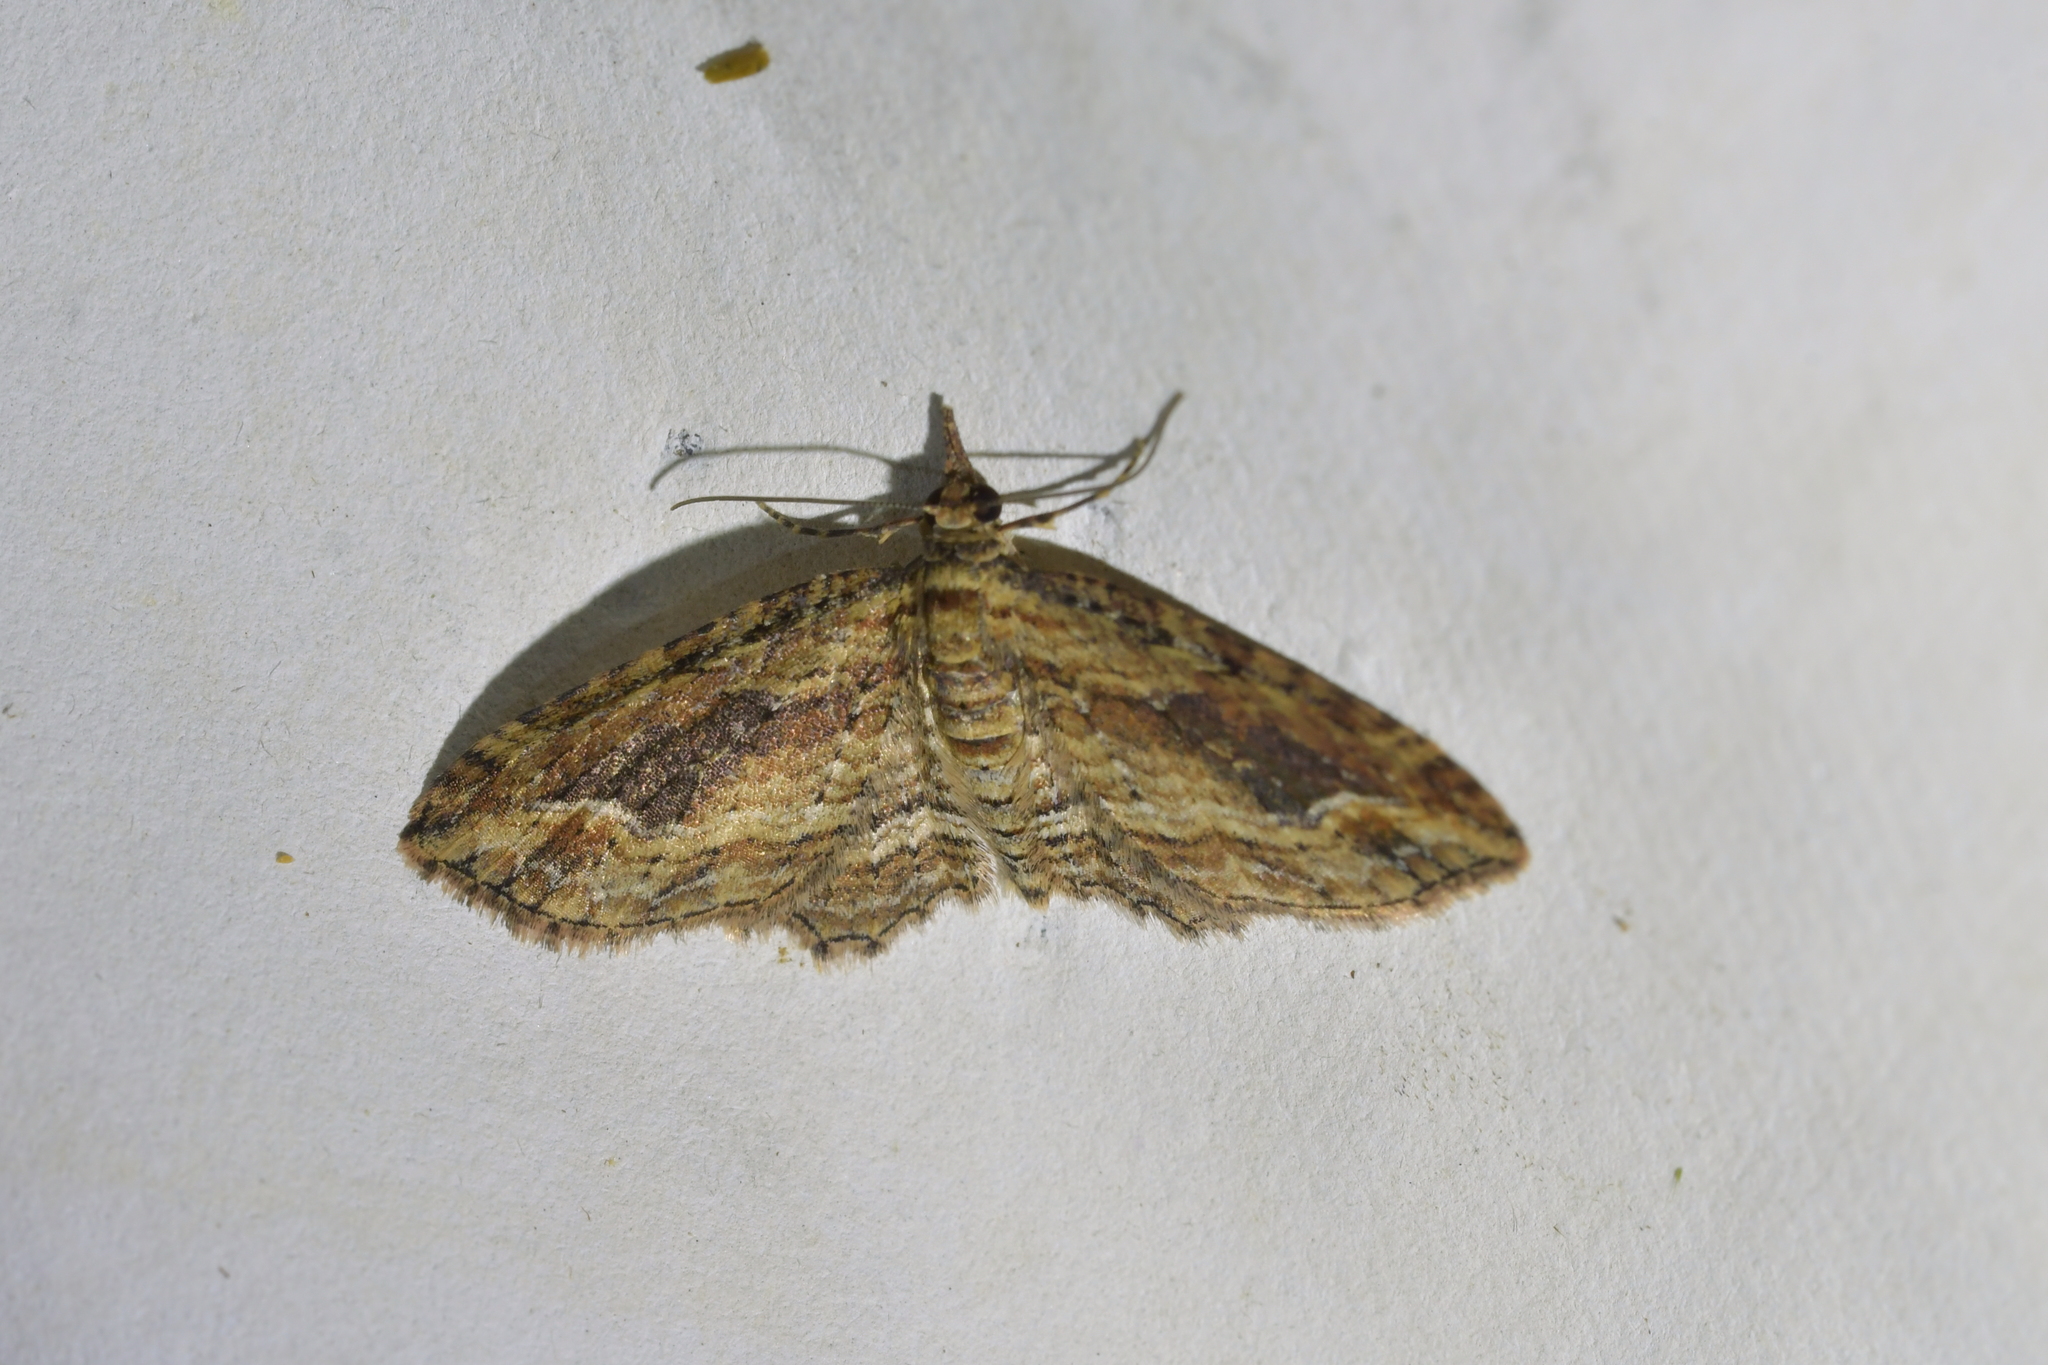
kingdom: Animalia
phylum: Arthropoda
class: Insecta
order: Lepidoptera
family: Geometridae
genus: Chloroclystis
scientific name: Chloroclystis filata
